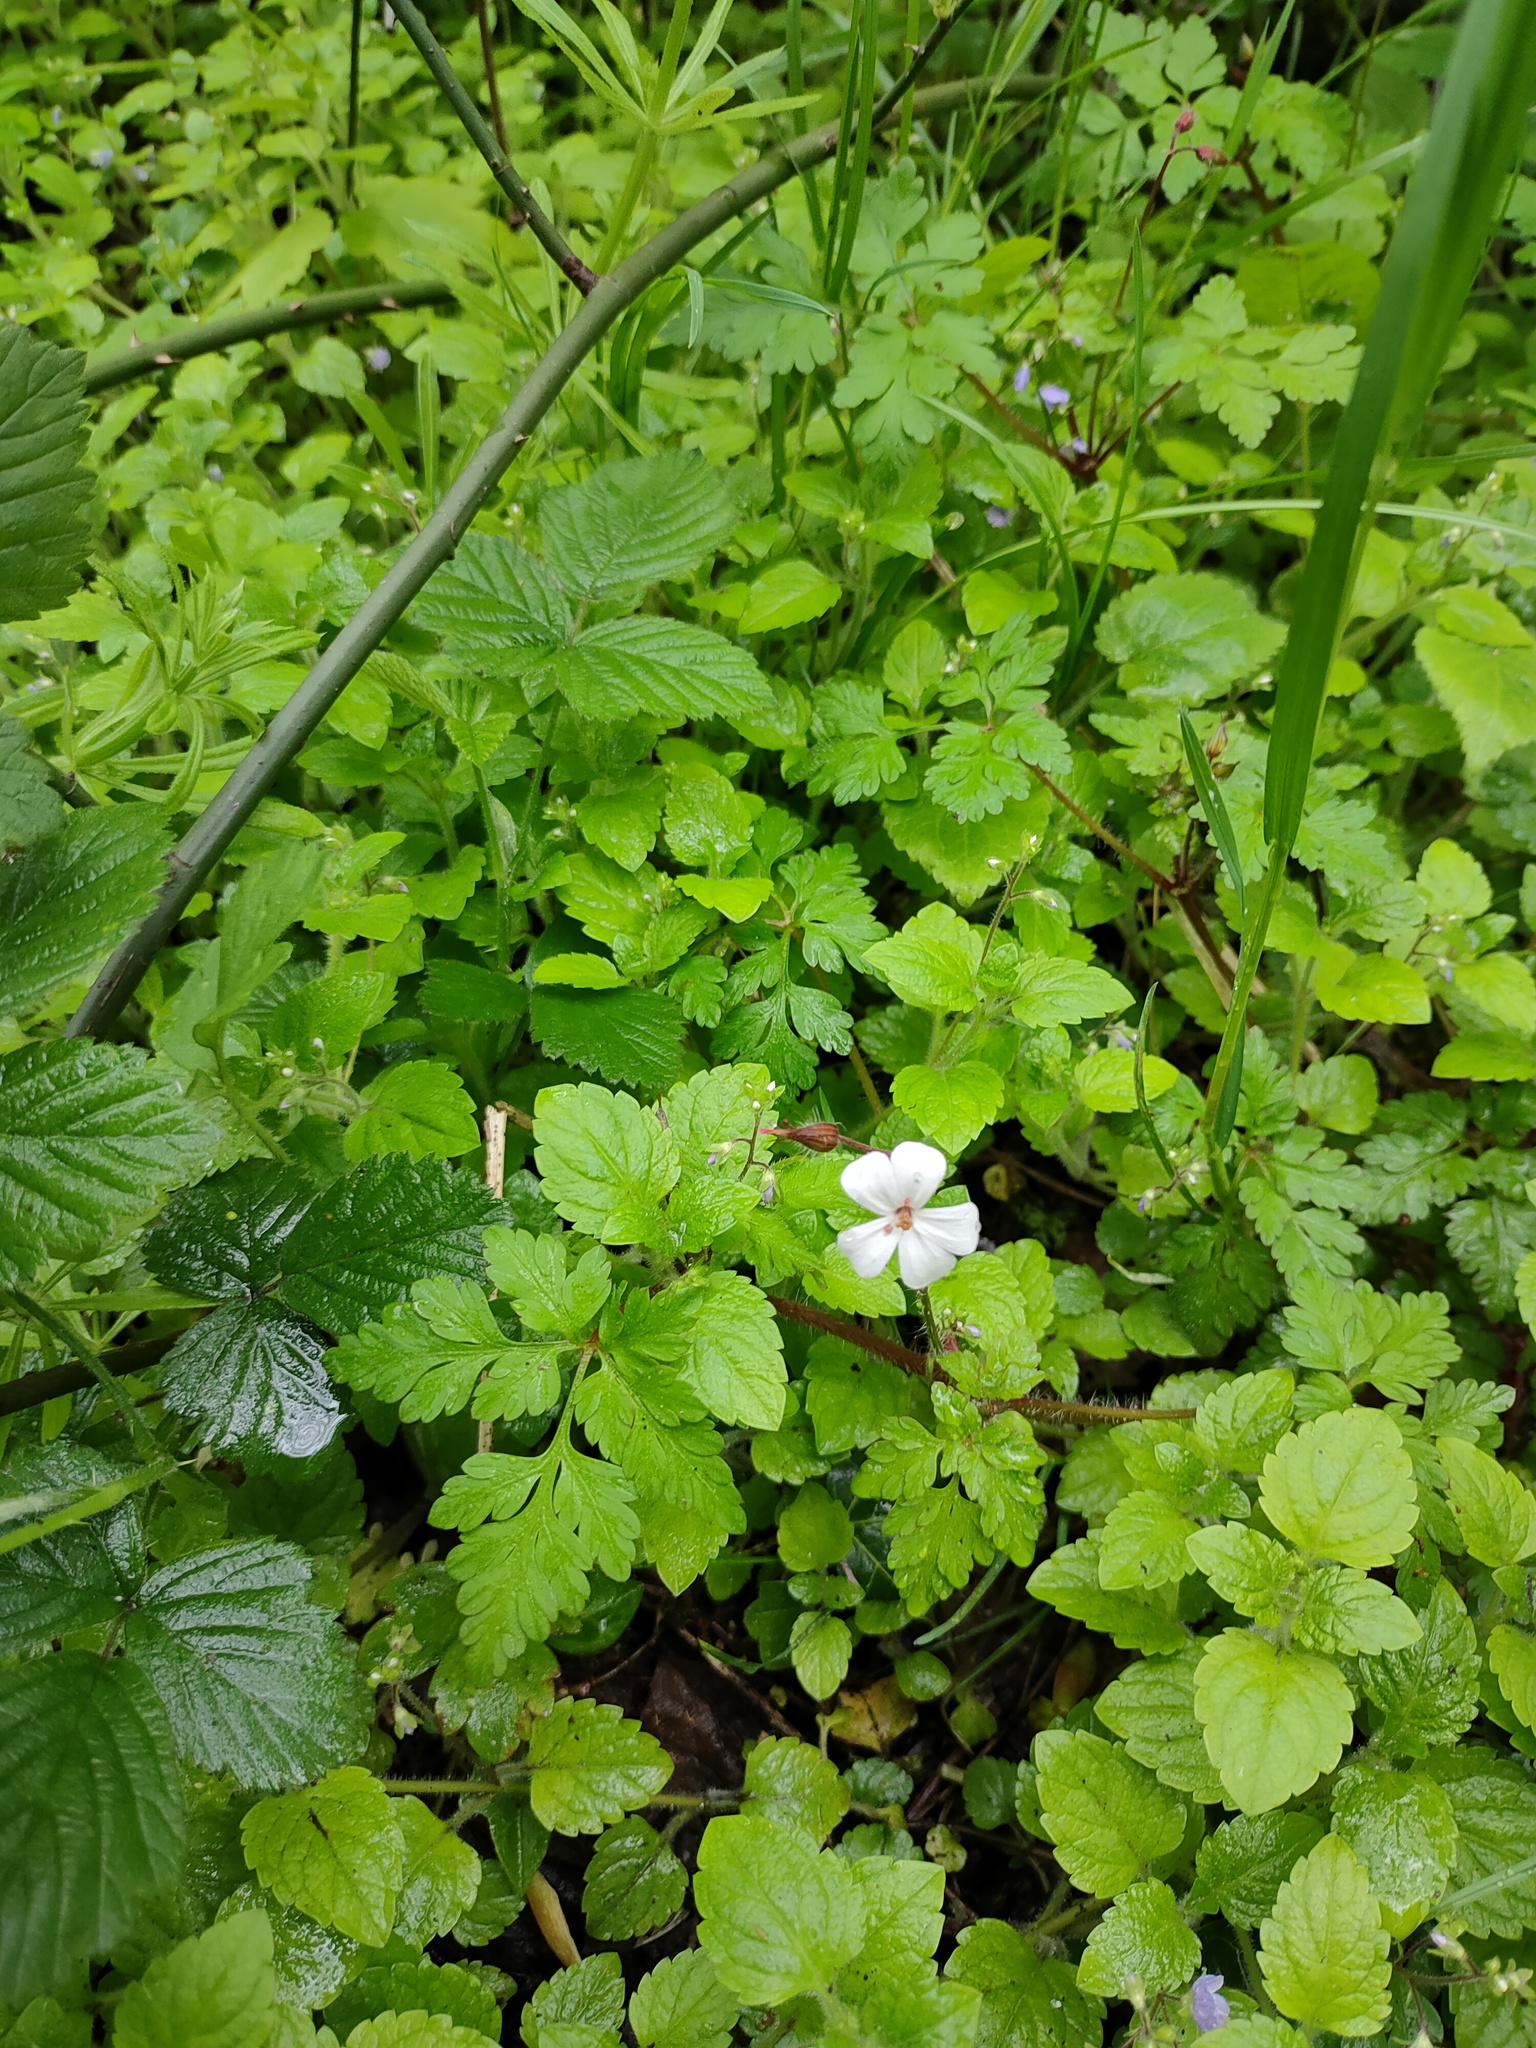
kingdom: Plantae
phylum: Tracheophyta
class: Magnoliopsida
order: Geraniales
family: Geraniaceae
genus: Geranium
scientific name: Geranium robertianum
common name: Herb-robert
